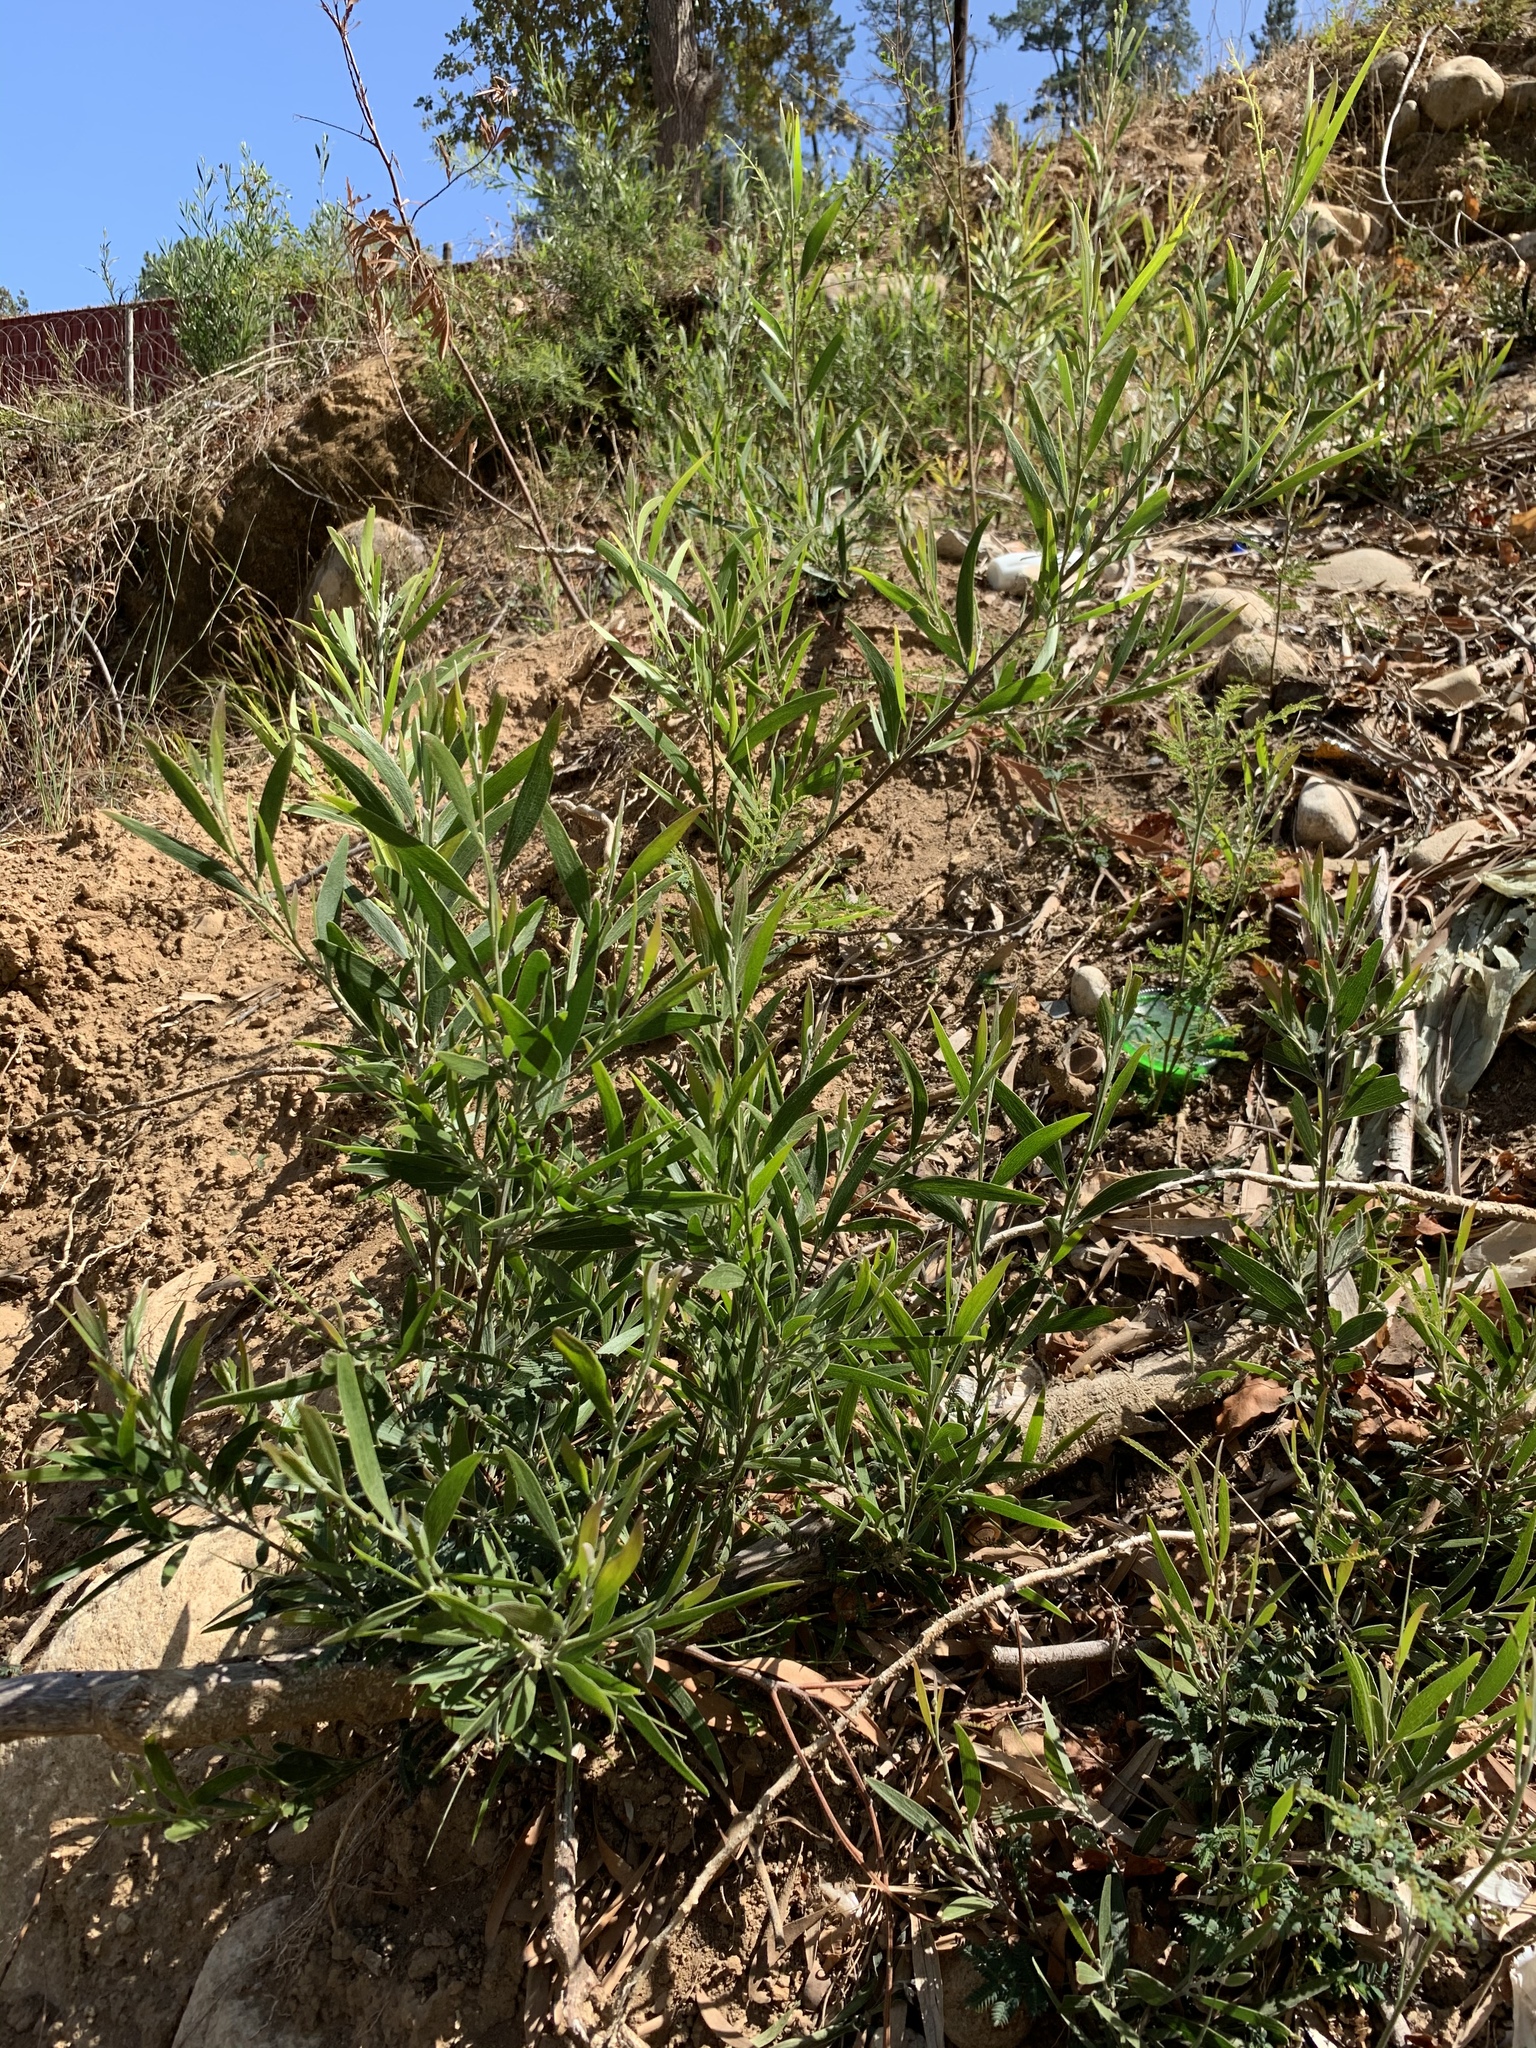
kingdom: Plantae
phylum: Tracheophyta
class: Magnoliopsida
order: Fabales
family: Fabaceae
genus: Acacia
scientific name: Acacia melanoxylon
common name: Blackwood
